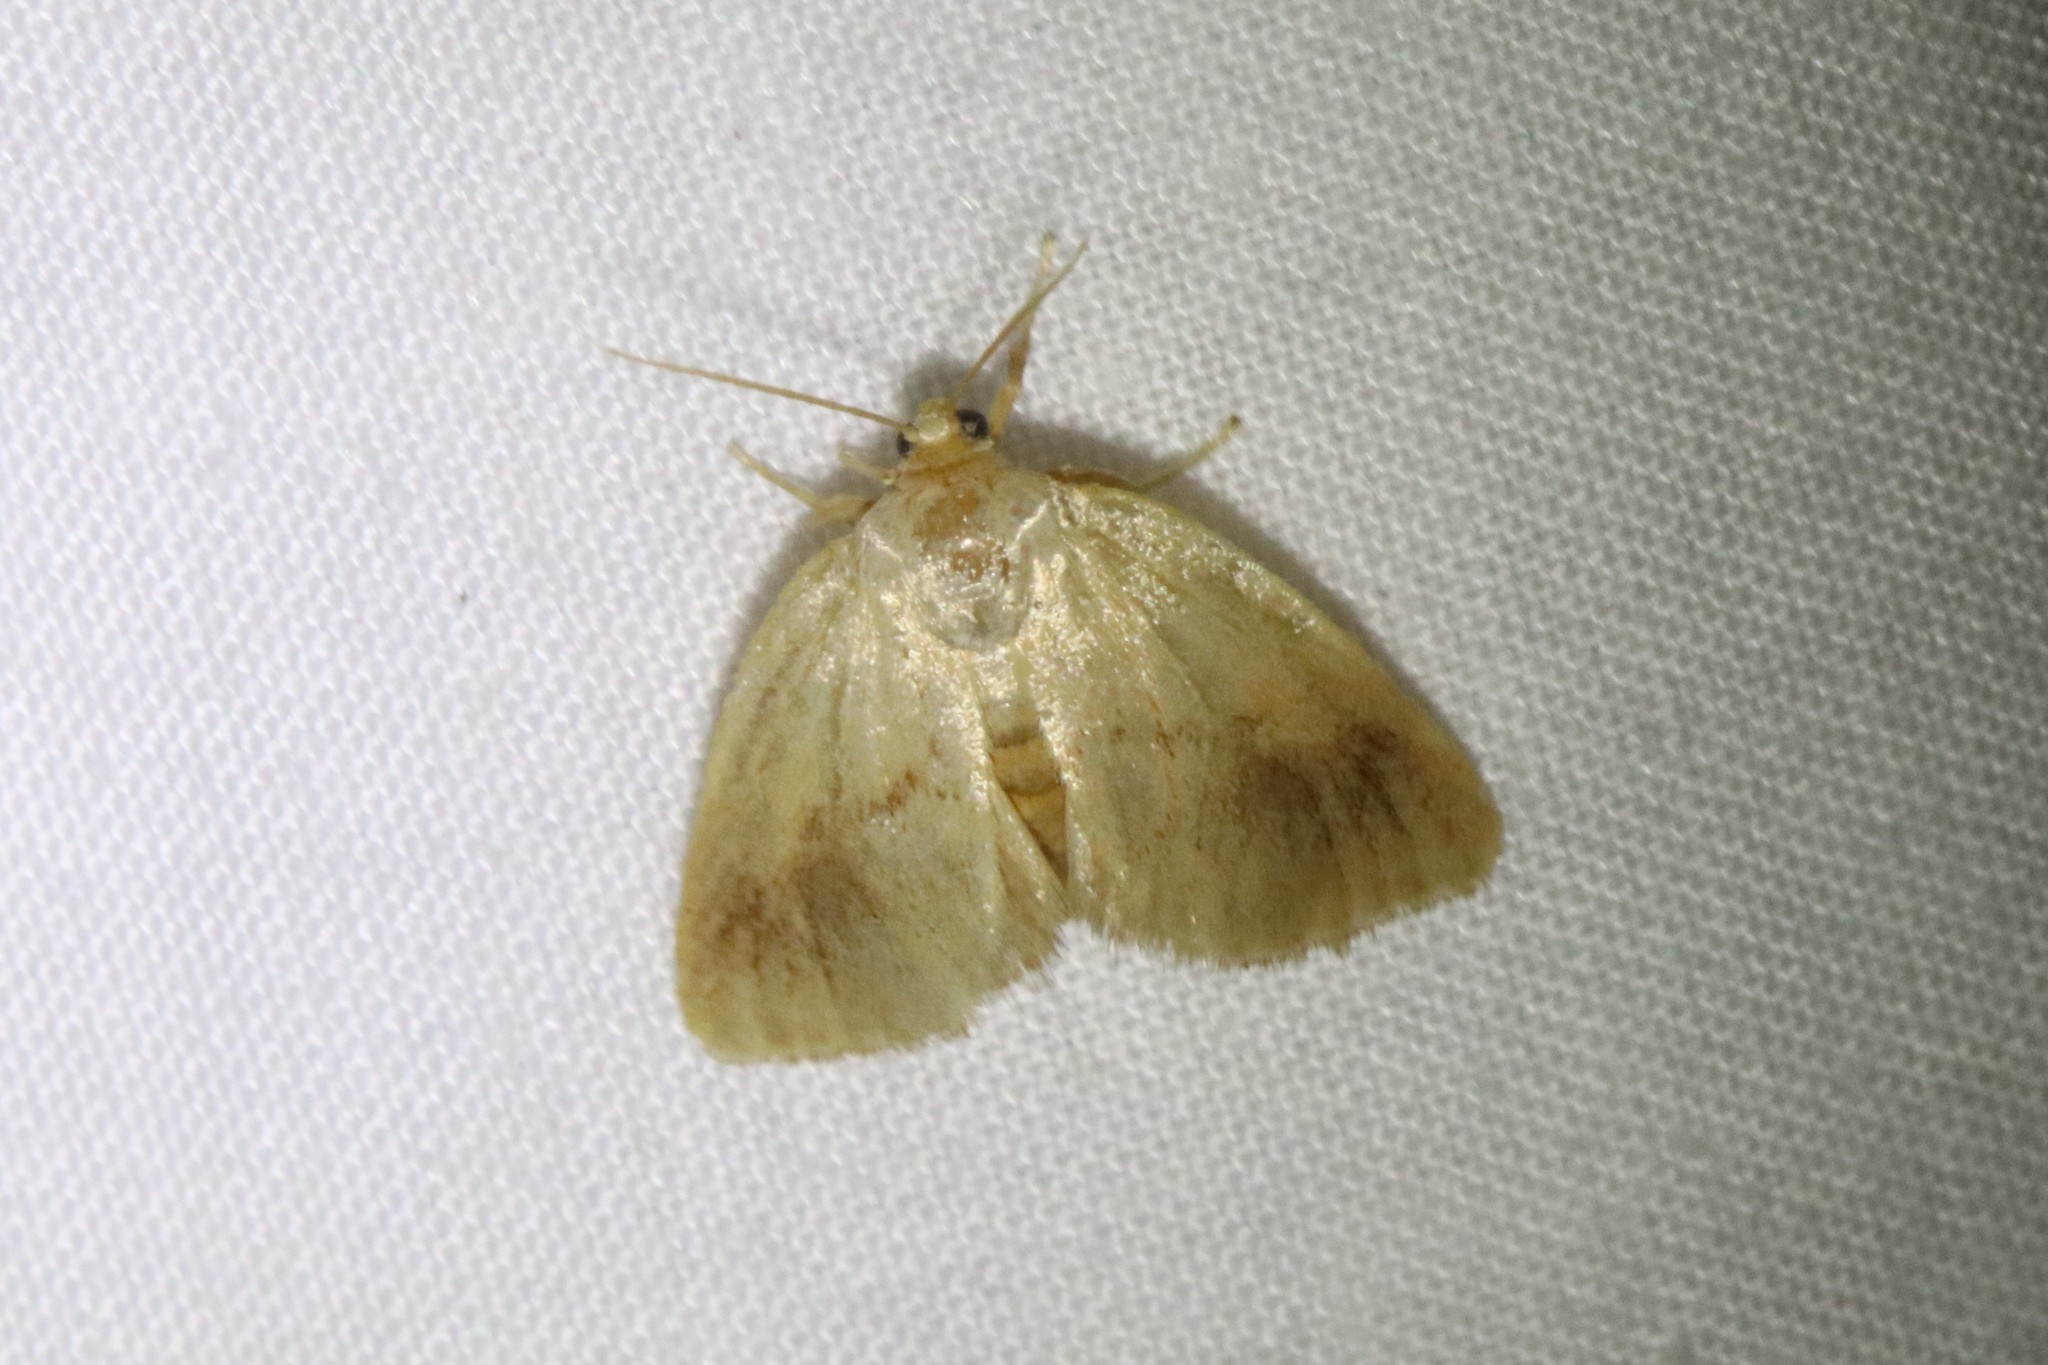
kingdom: Animalia
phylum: Arthropoda
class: Insecta
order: Lepidoptera
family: Limacodidae
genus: Tortricidia
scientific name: Tortricidia testacea
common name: Early button slug moth
